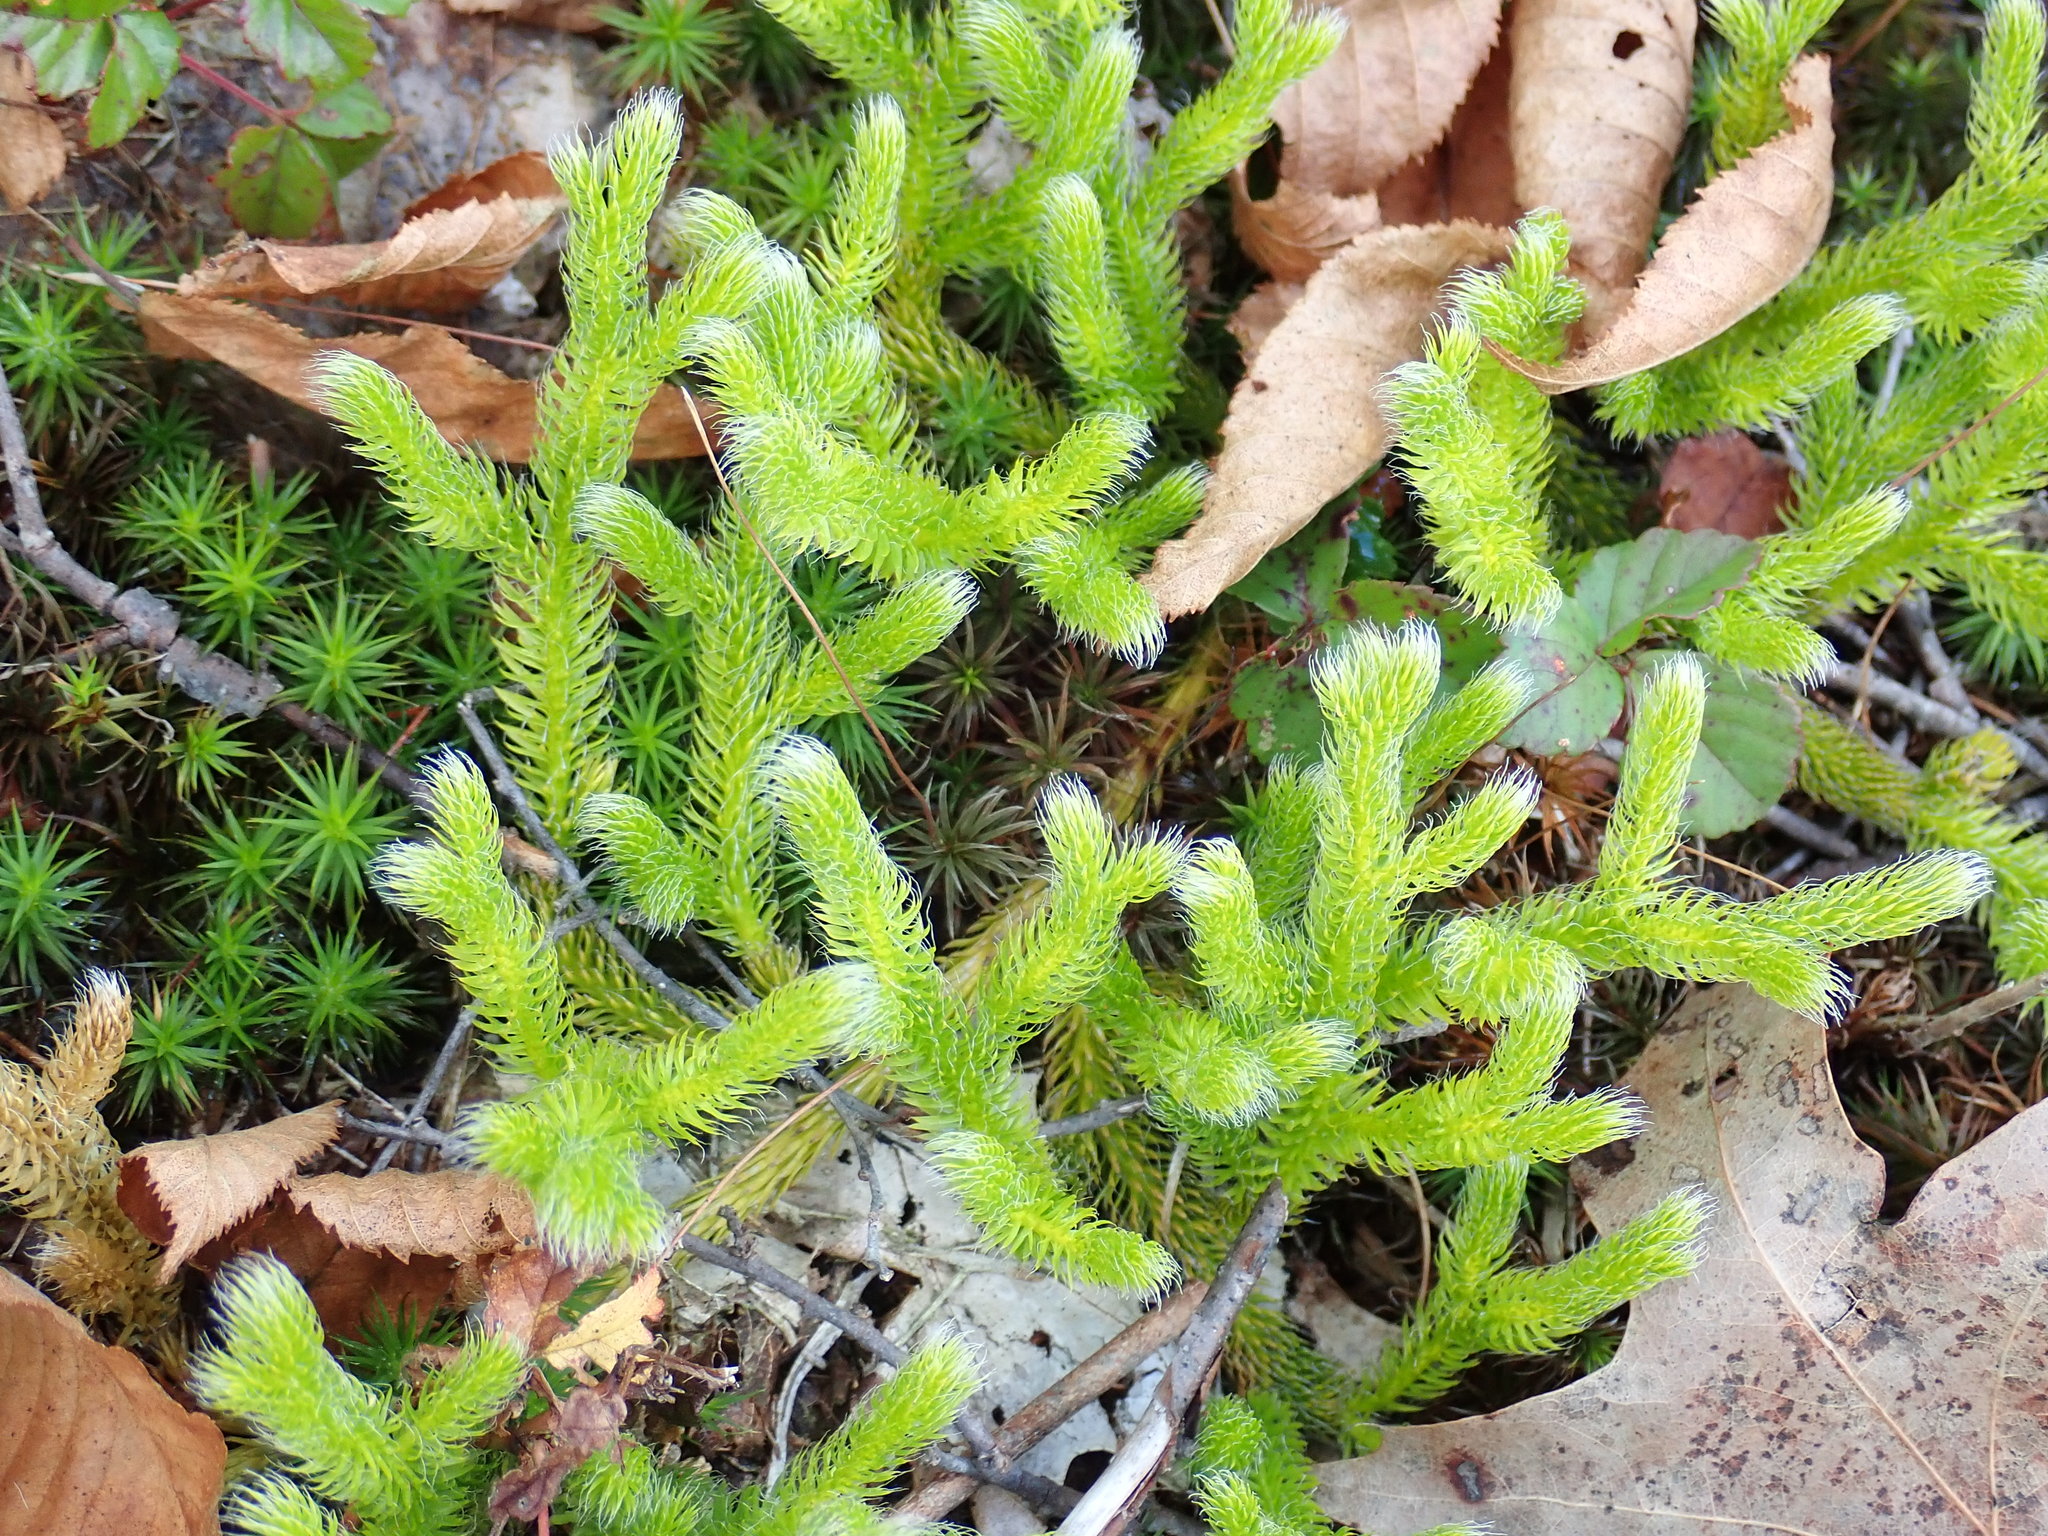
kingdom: Plantae
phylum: Tracheophyta
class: Lycopodiopsida
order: Lycopodiales
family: Lycopodiaceae
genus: Lycopodium
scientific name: Lycopodium clavatum
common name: Stag's-horn clubmoss
